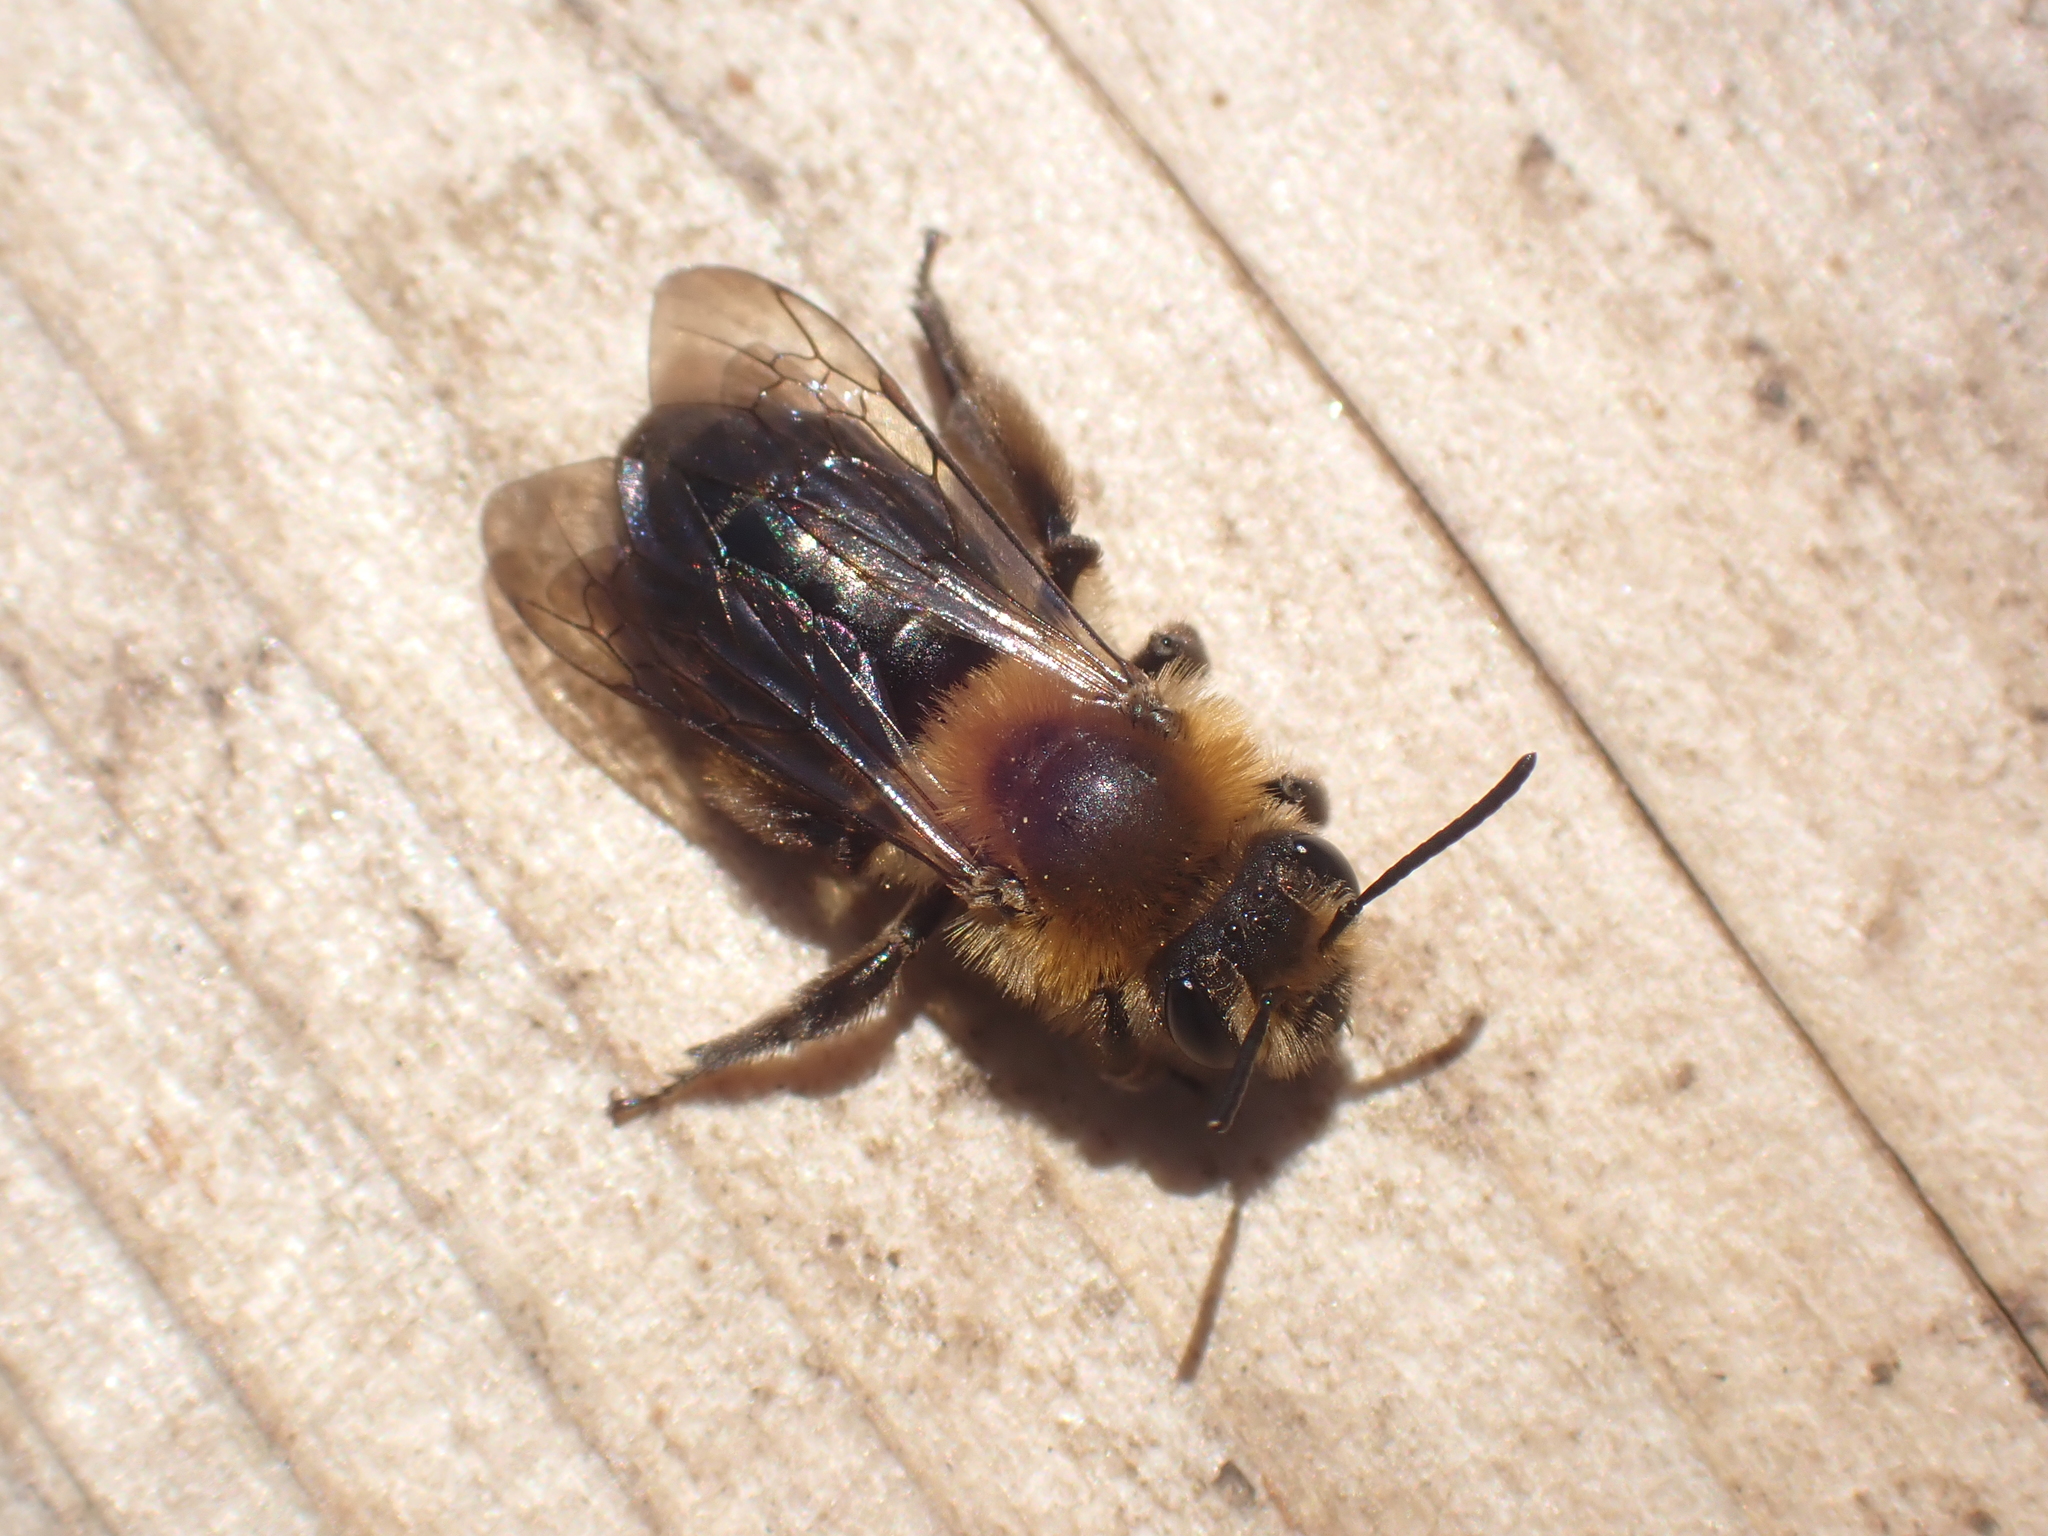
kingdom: Animalia
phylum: Arthropoda
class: Insecta
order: Hymenoptera
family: Andrenidae
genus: Andrena
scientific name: Andrena dunningi
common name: Dunning's miner
